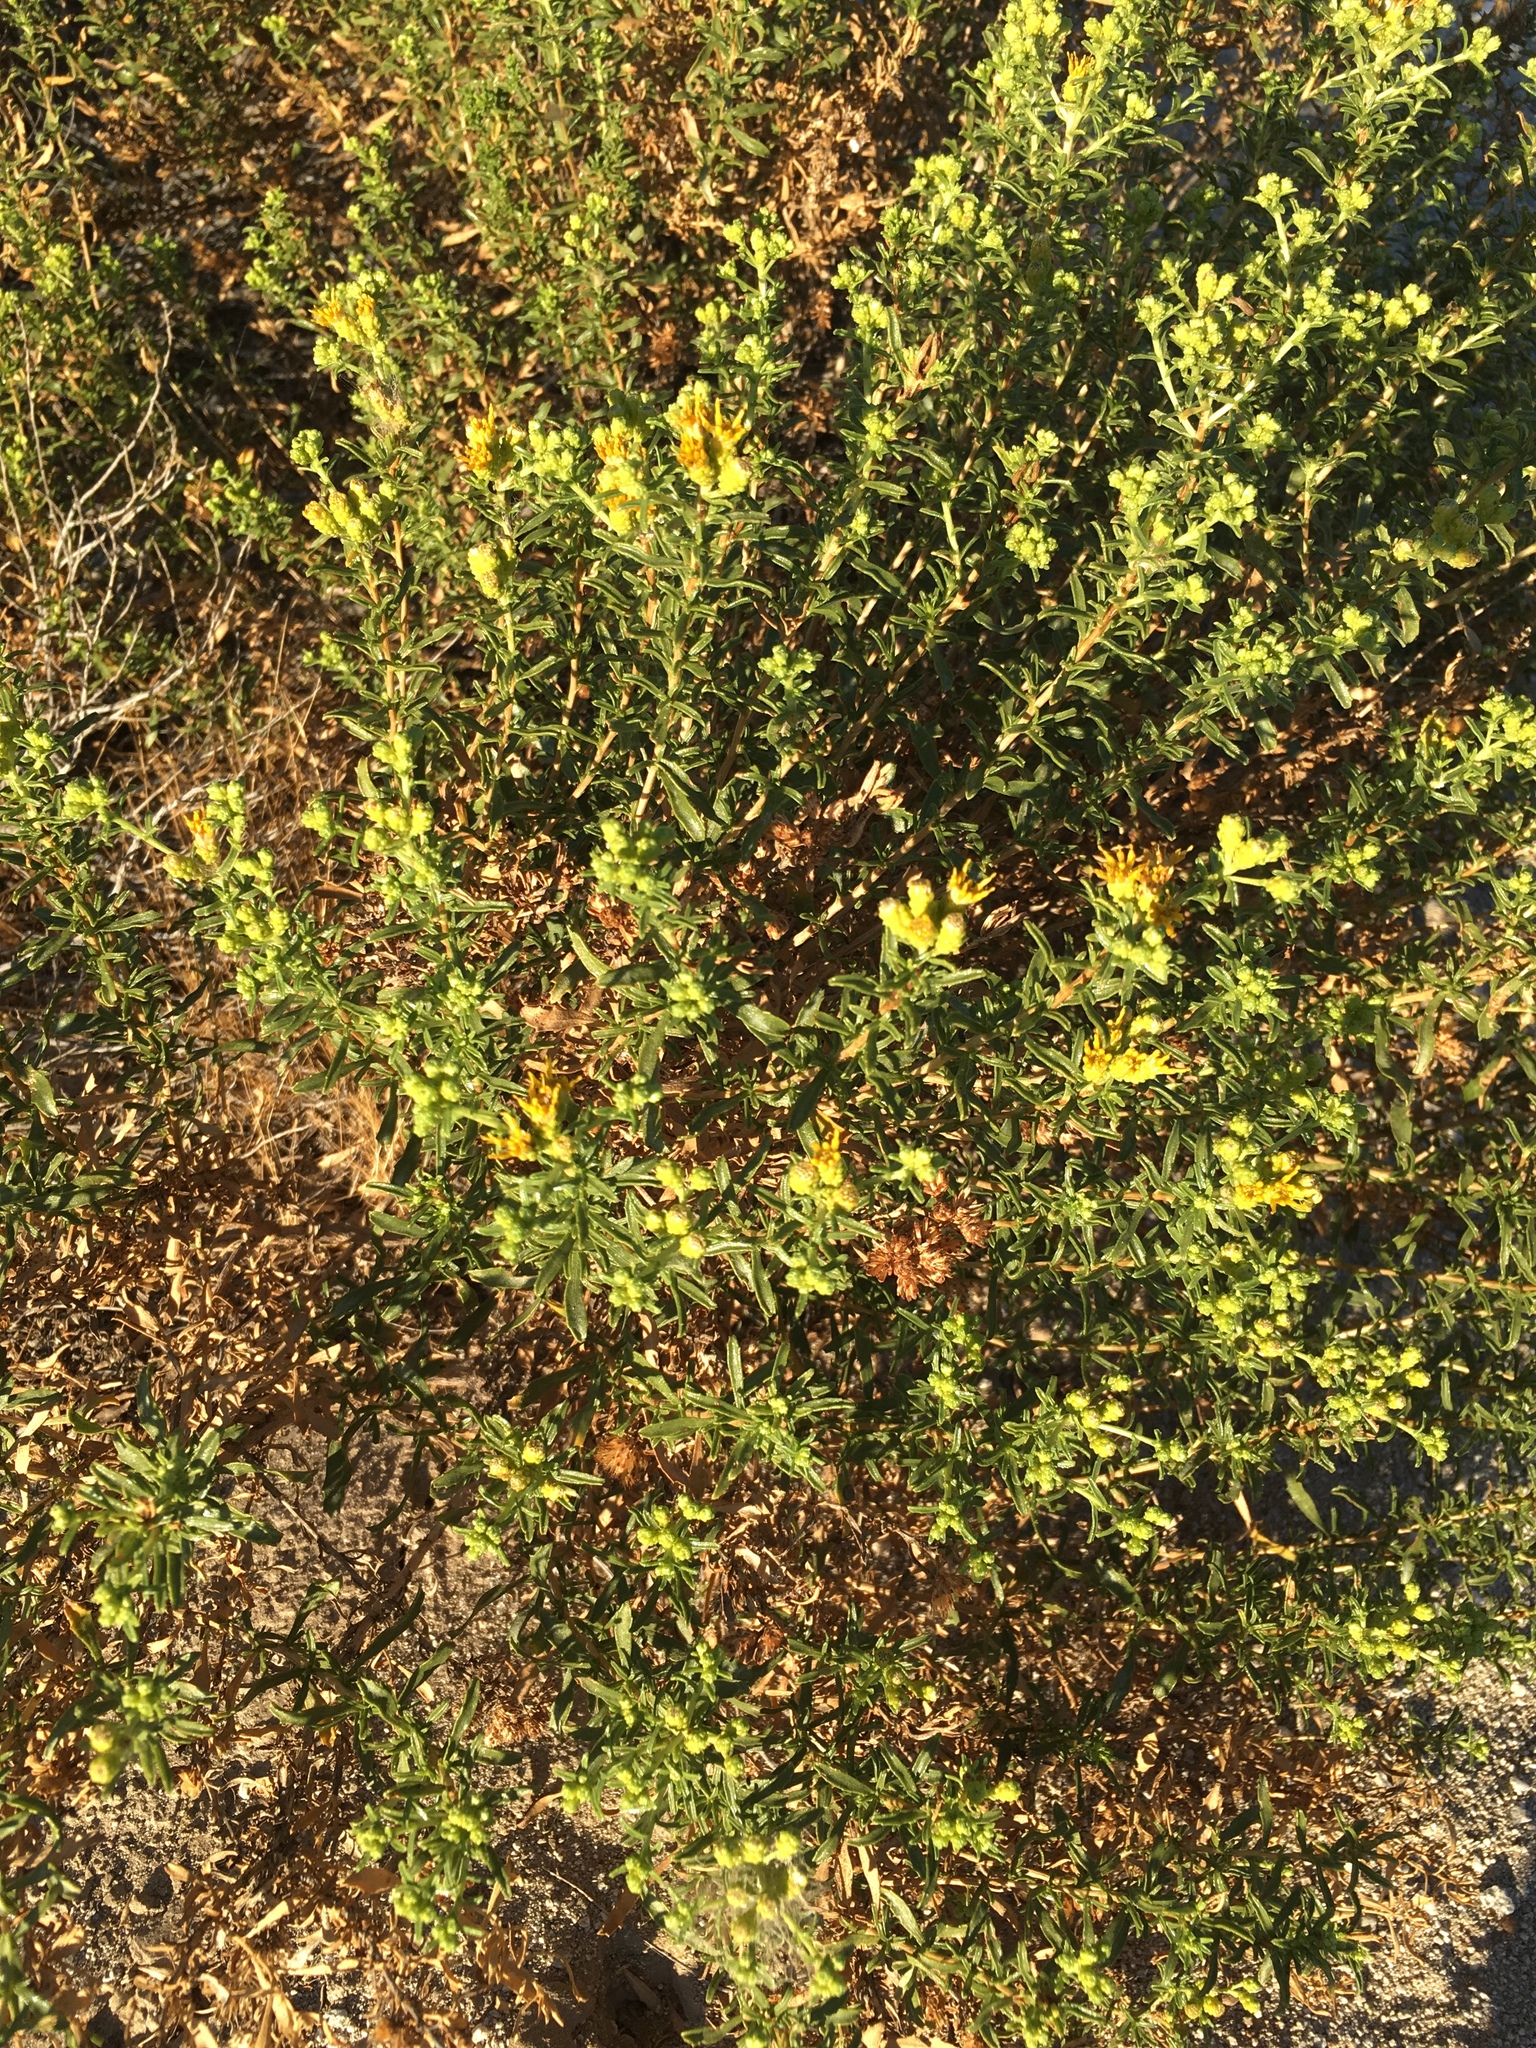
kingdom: Plantae
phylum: Tracheophyta
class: Magnoliopsida
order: Asterales
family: Asteraceae
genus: Isocoma
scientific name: Isocoma acradenia
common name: Alkali jimmyweed
